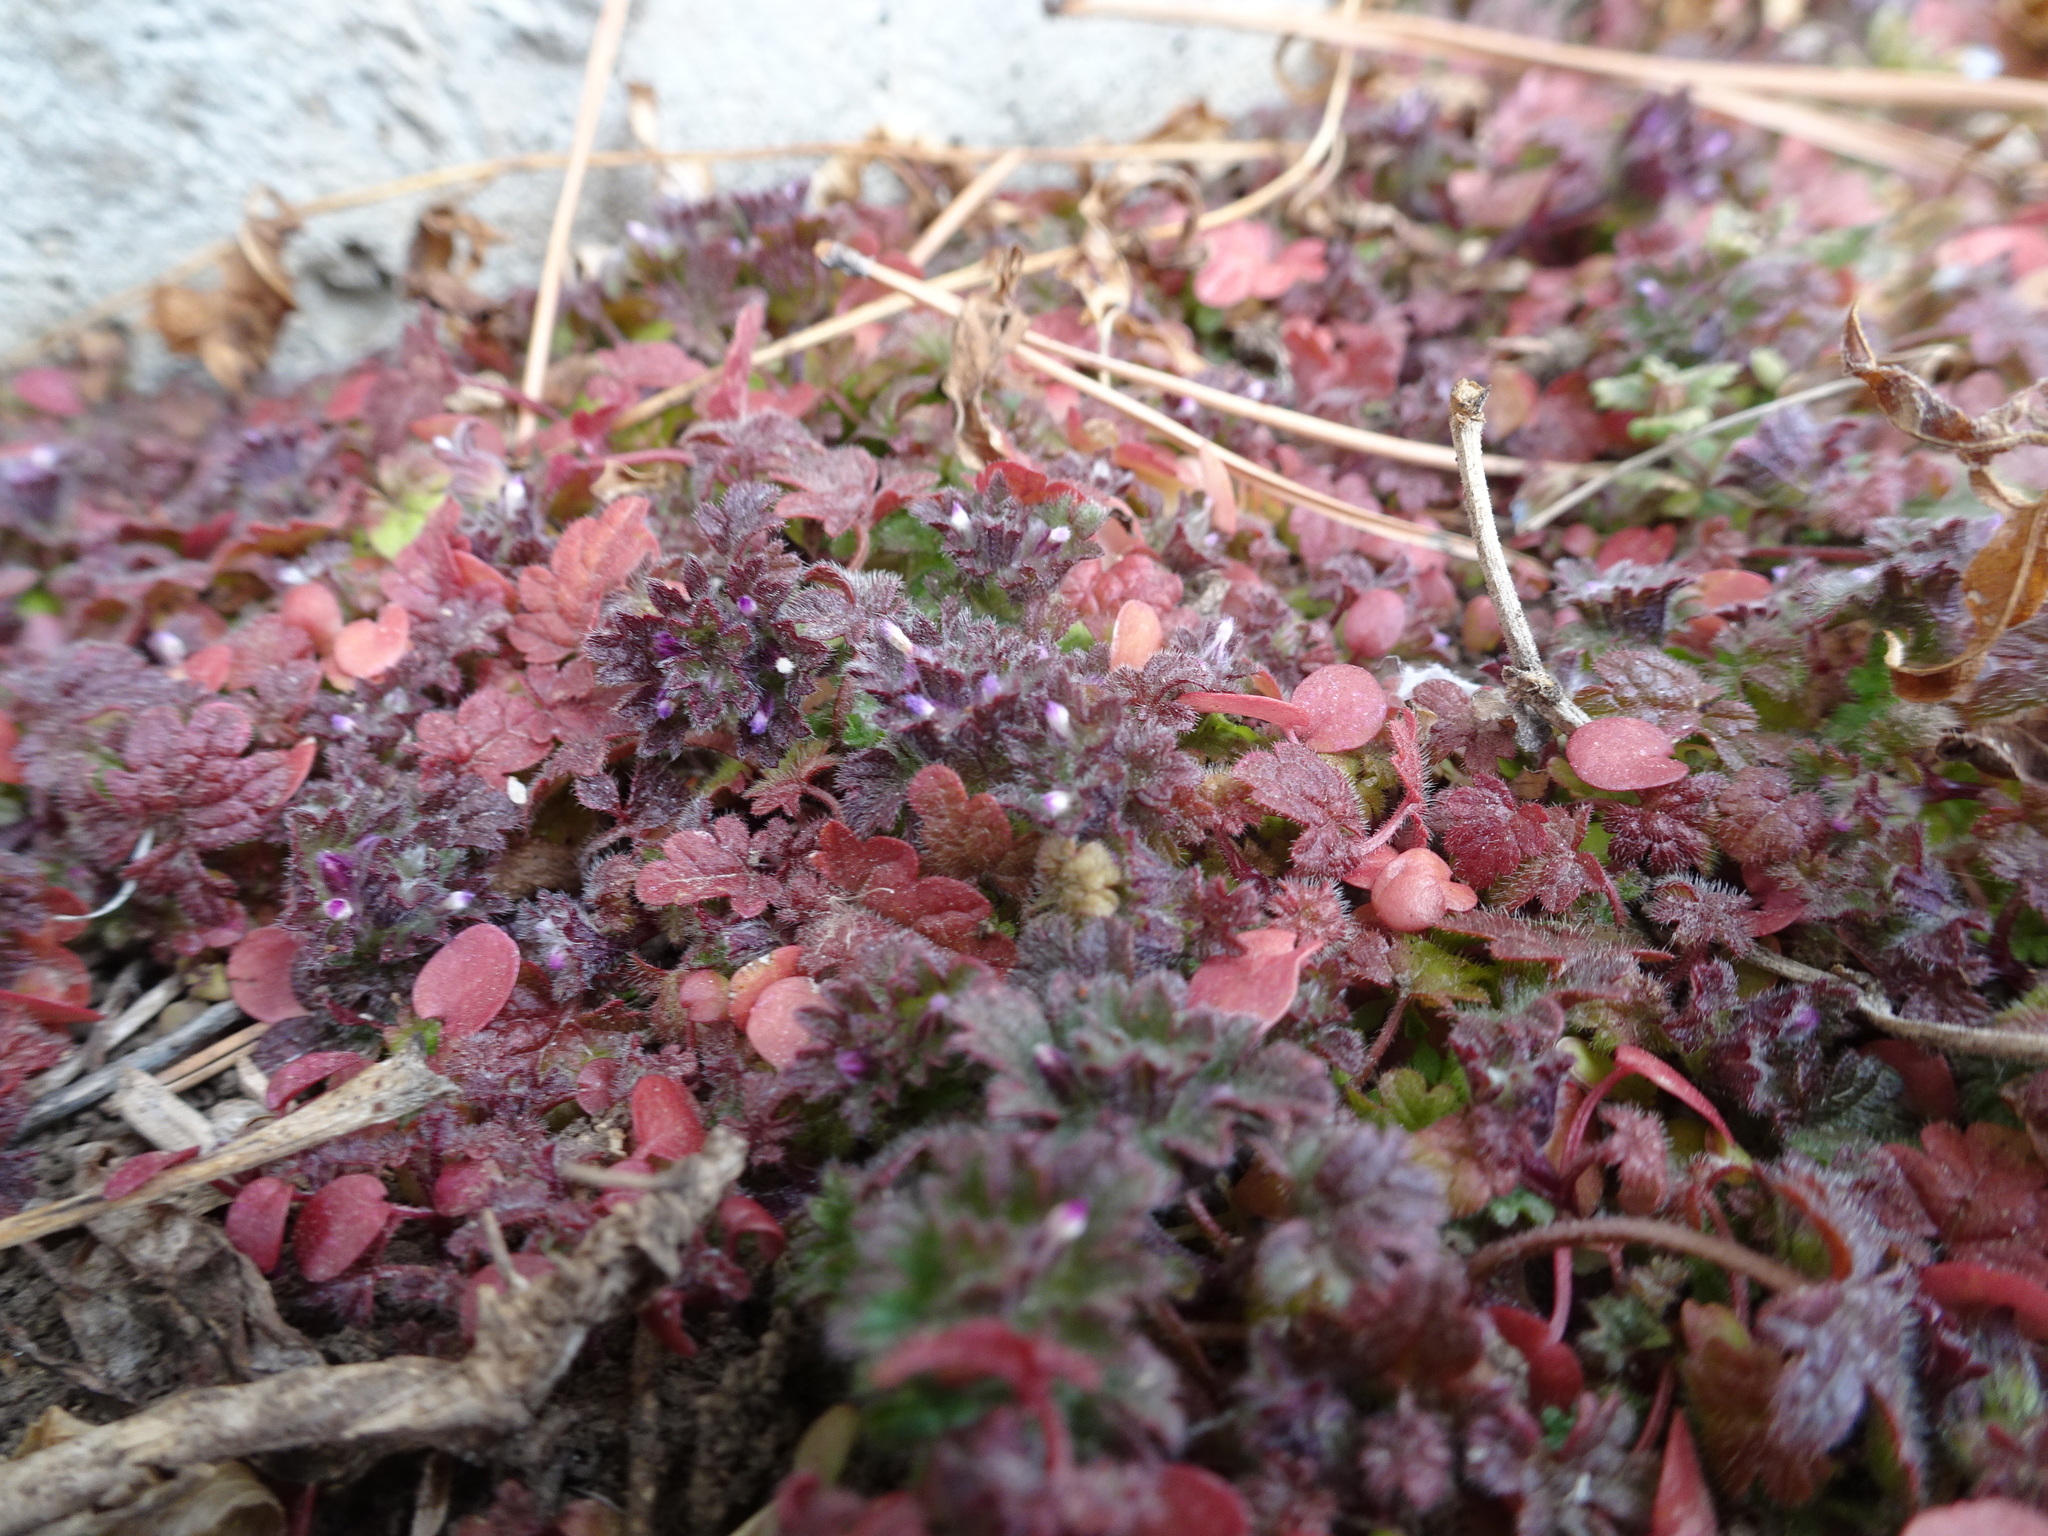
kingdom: Plantae
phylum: Tracheophyta
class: Magnoliopsida
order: Lamiales
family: Lamiaceae
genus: Lamium
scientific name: Lamium amplexicaule
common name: Henbit dead-nettle
